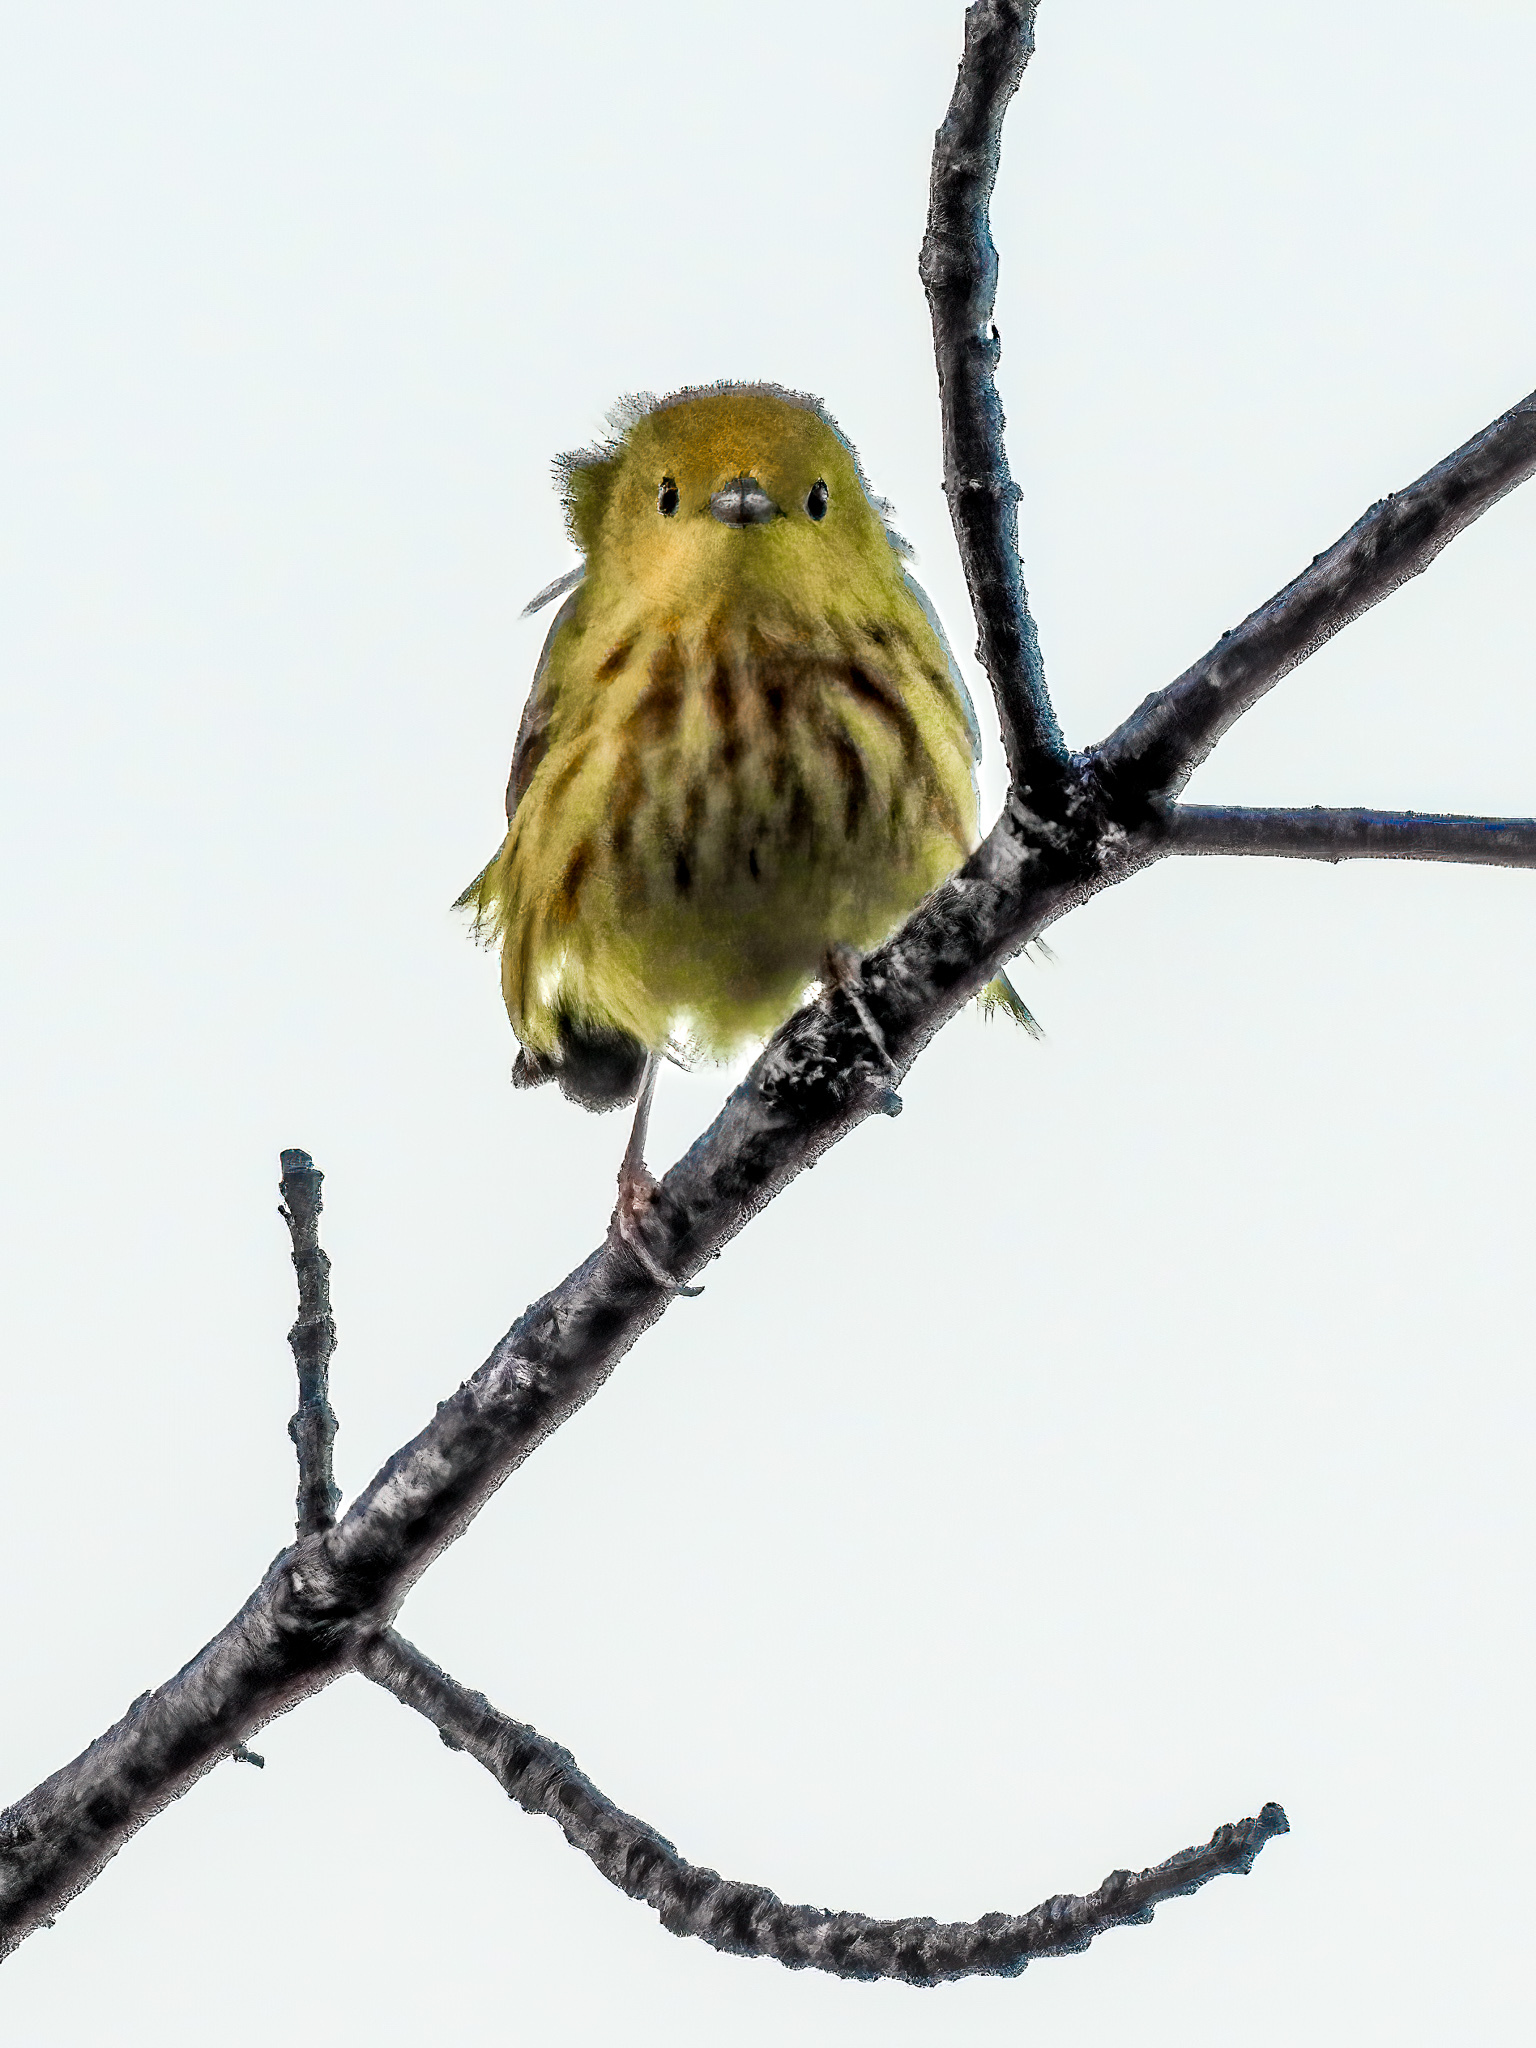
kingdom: Animalia
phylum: Chordata
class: Aves
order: Passeriformes
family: Parulidae
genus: Setophaga
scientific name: Setophaga petechia
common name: Yellow warbler
